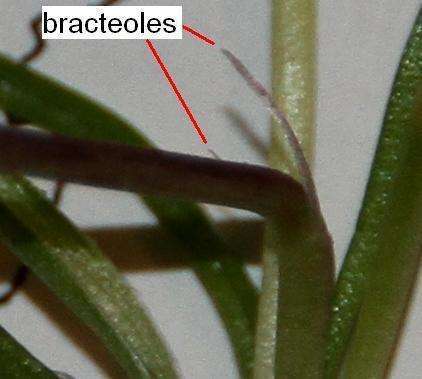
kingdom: Plantae
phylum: Tracheophyta
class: Liliopsida
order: Asparagales
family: Hypoxidaceae
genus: Pauridia
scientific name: Pauridia glabella
